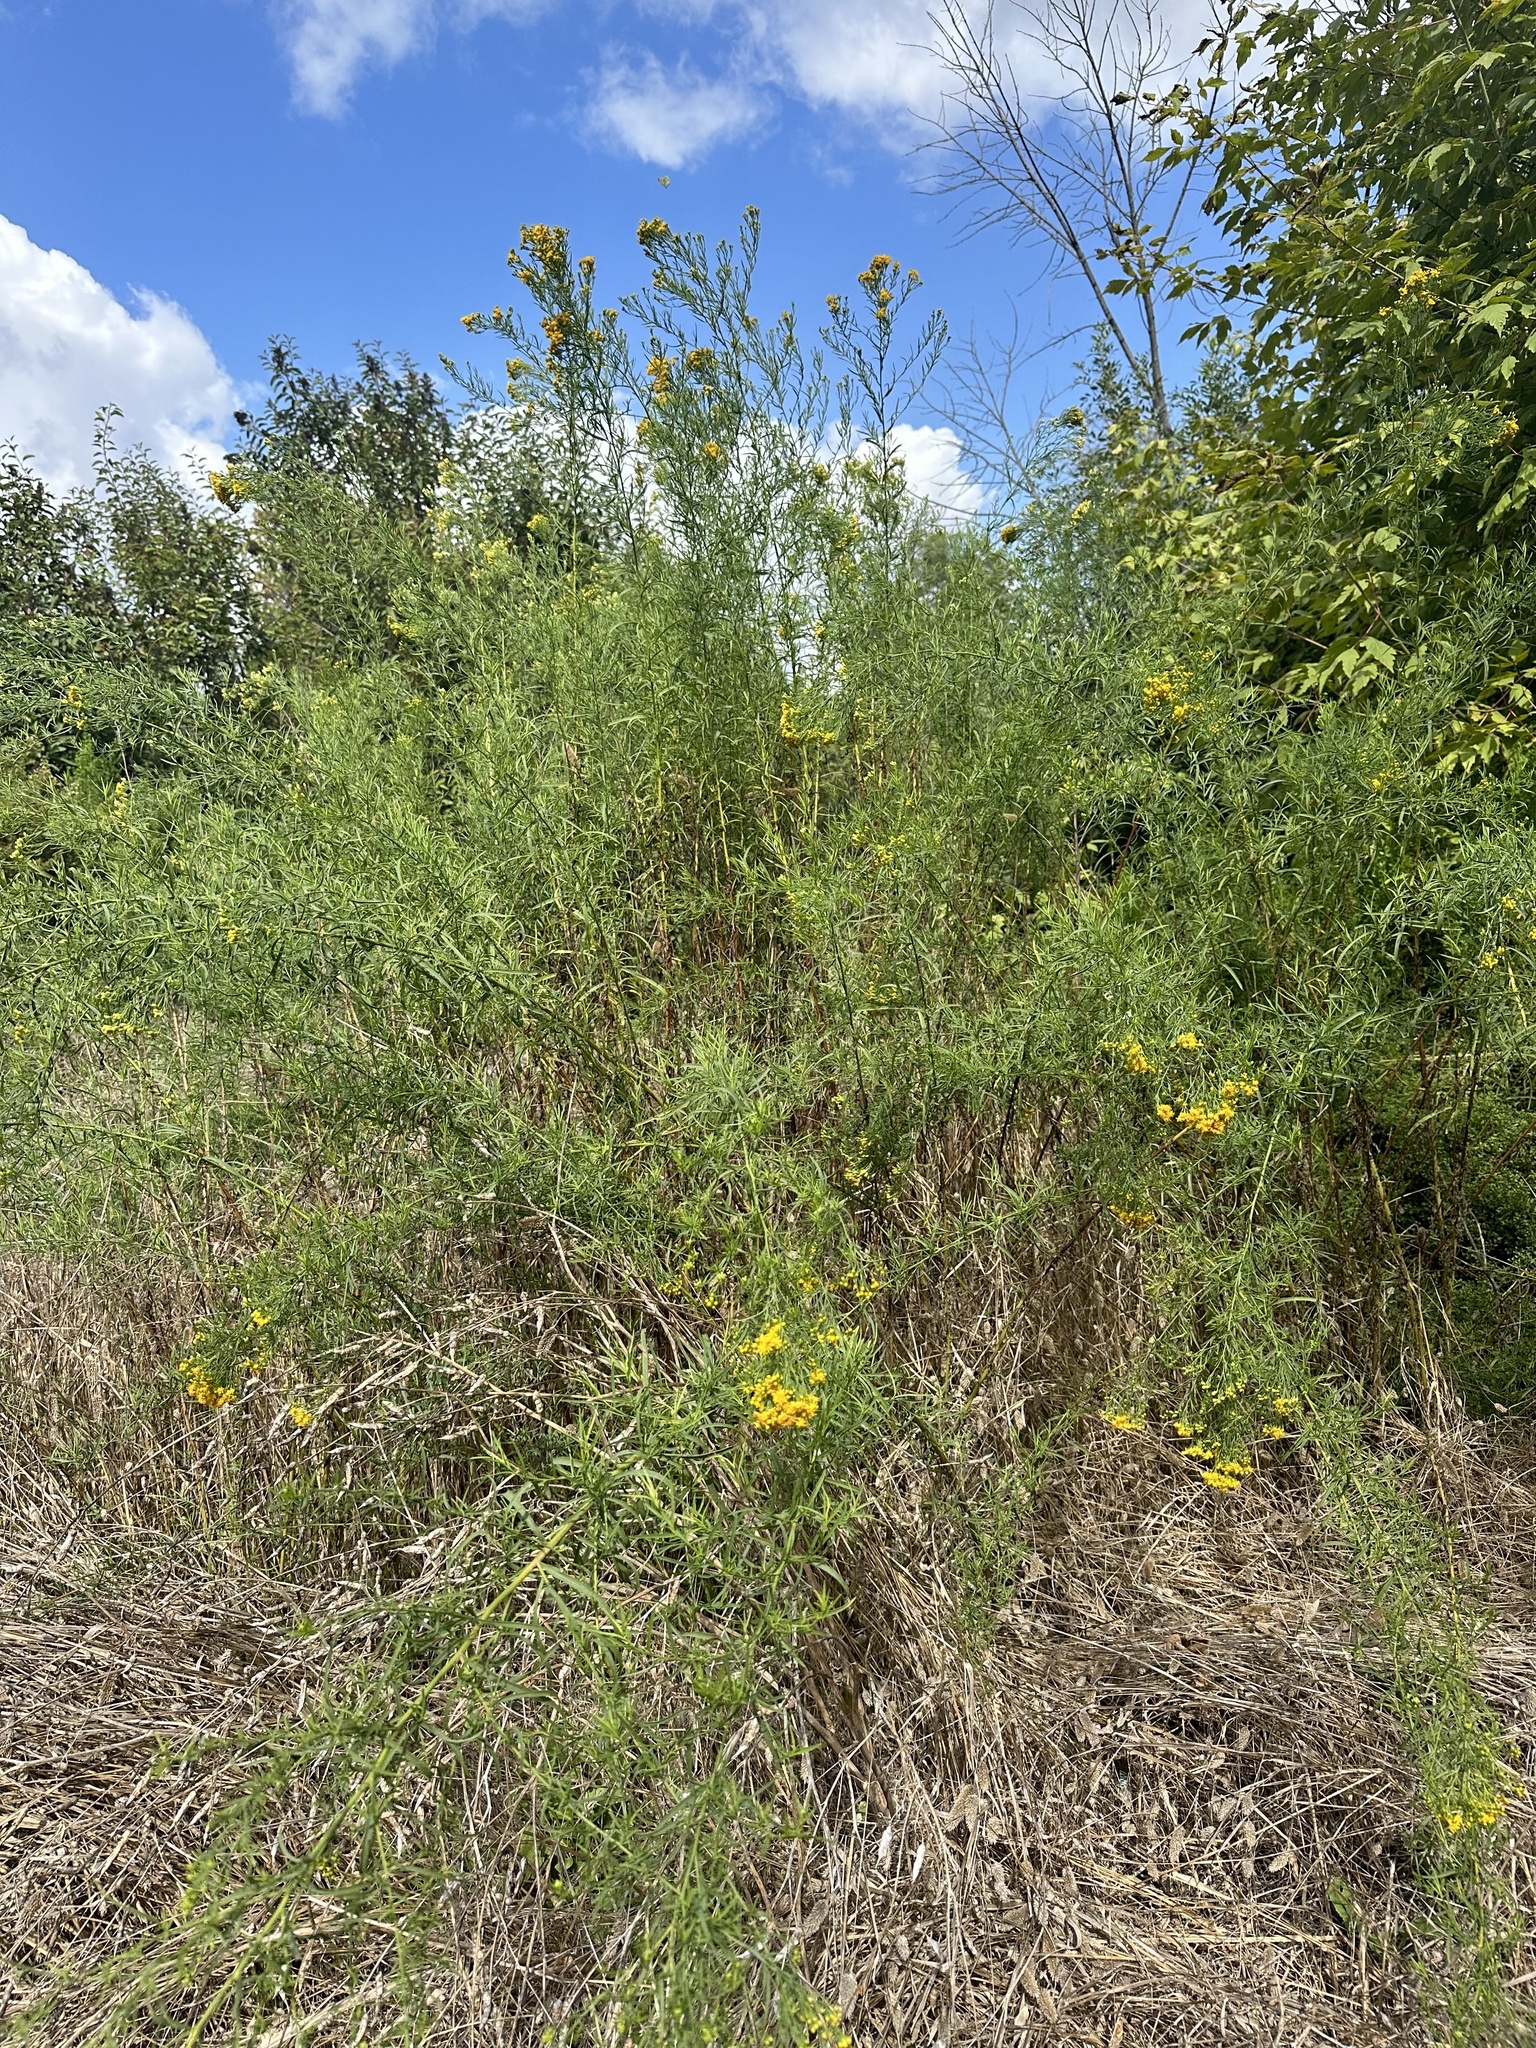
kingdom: Plantae
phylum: Tracheophyta
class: Magnoliopsida
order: Asterales
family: Asteraceae
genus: Euthamia
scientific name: Euthamia occidentalis
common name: Western goldentop
